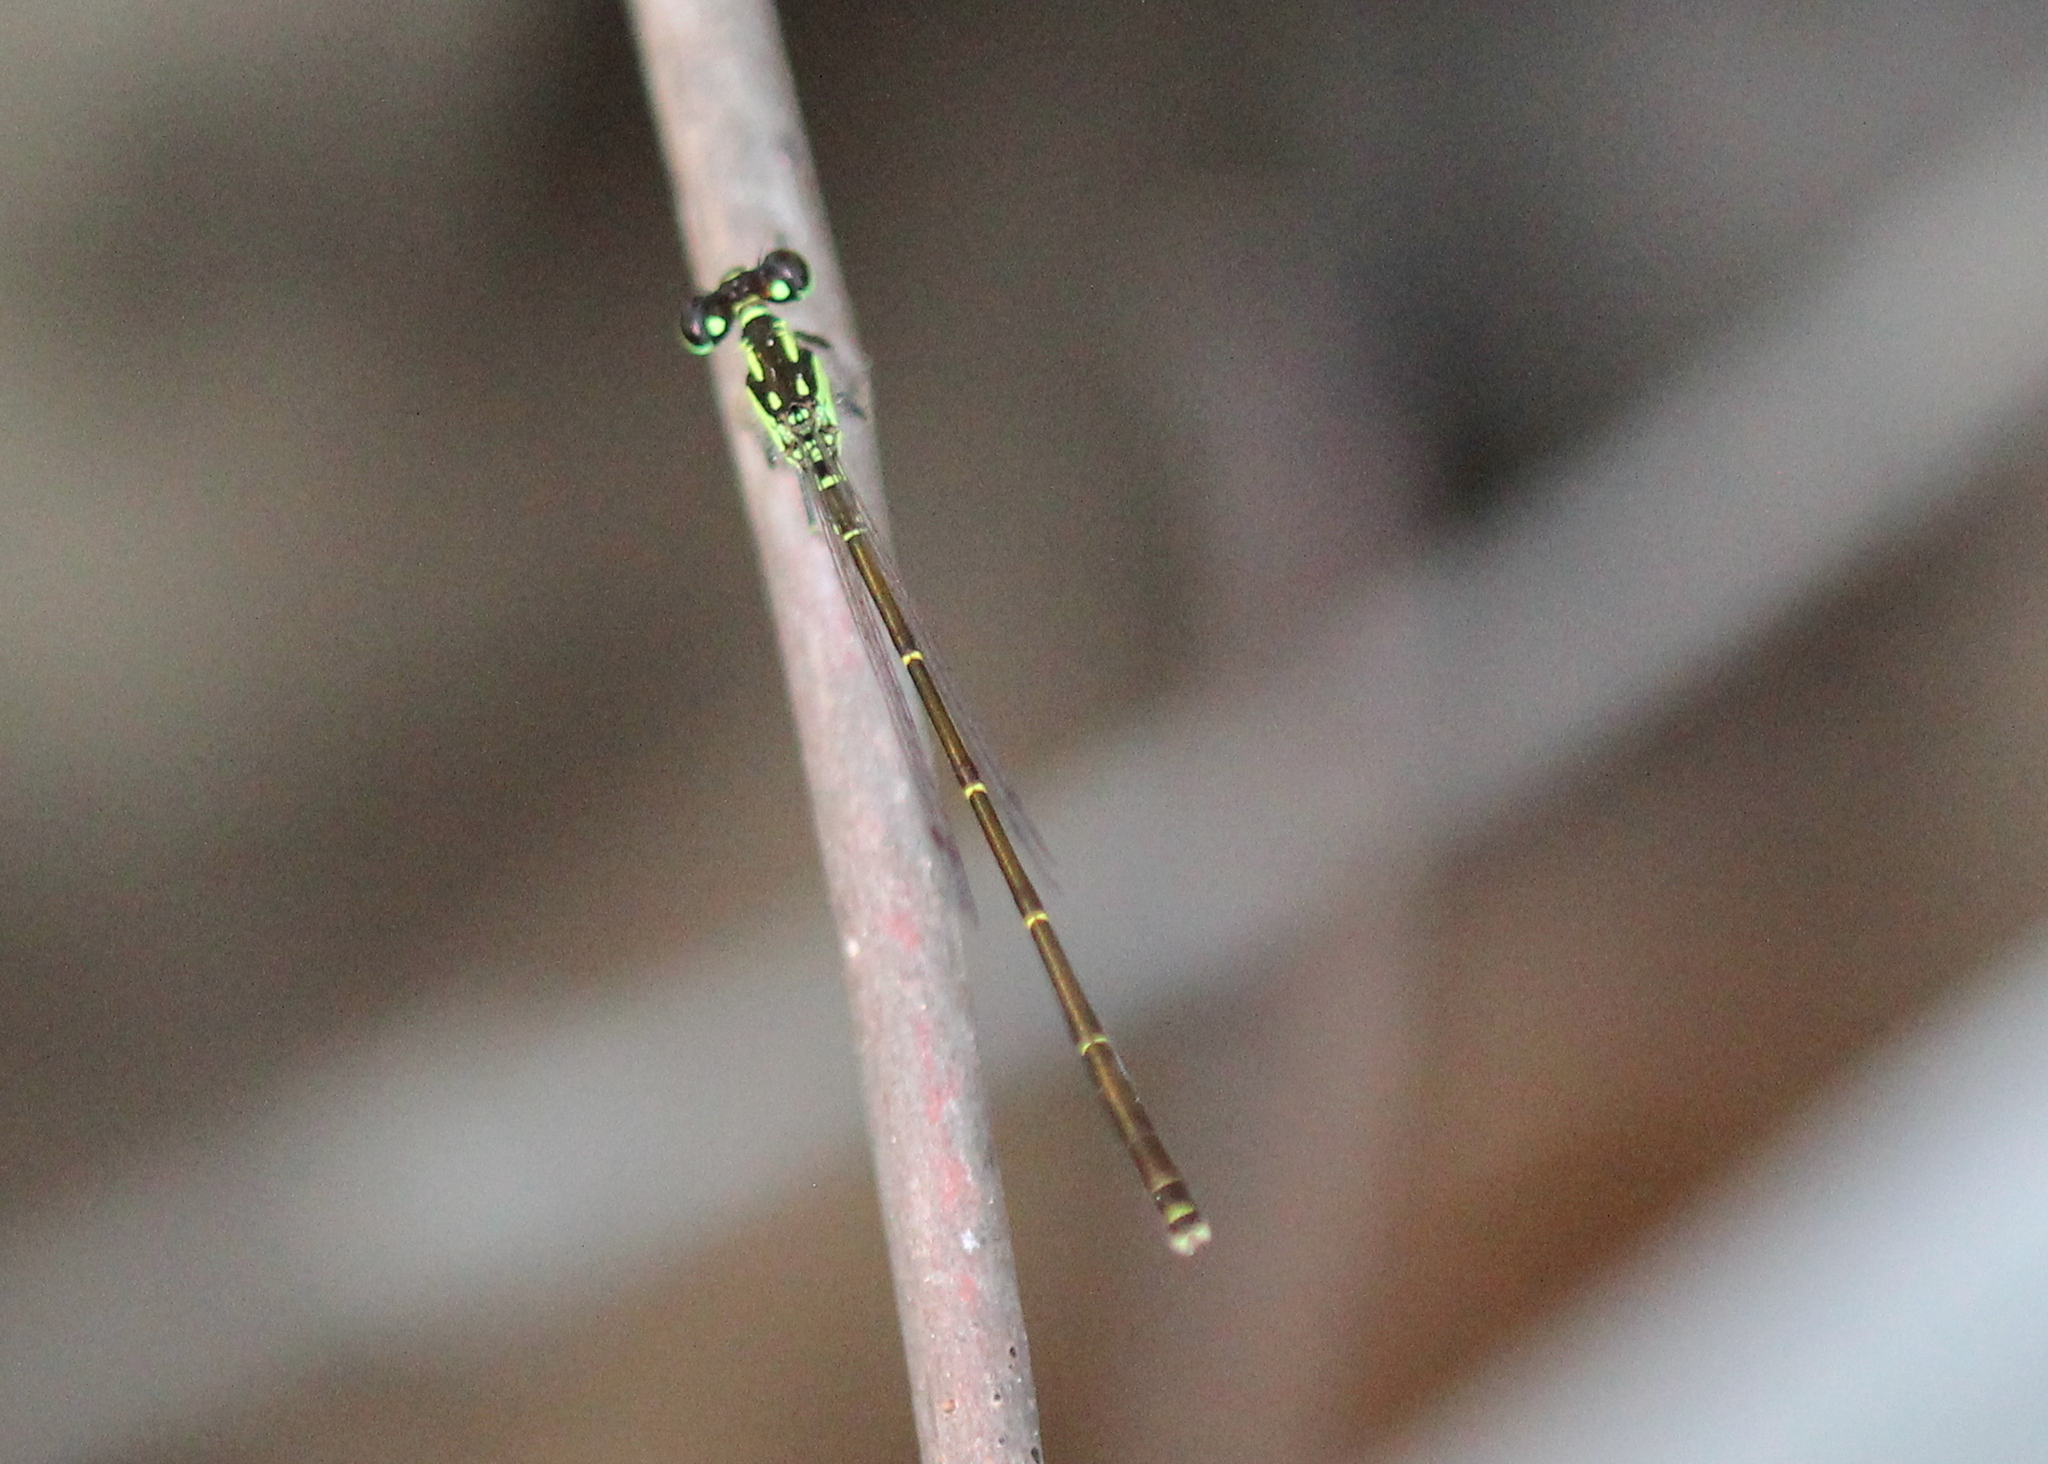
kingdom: Animalia
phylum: Arthropoda
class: Insecta
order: Odonata
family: Coenagrionidae
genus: Ischnura
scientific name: Ischnura posita
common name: Fragile forktail
